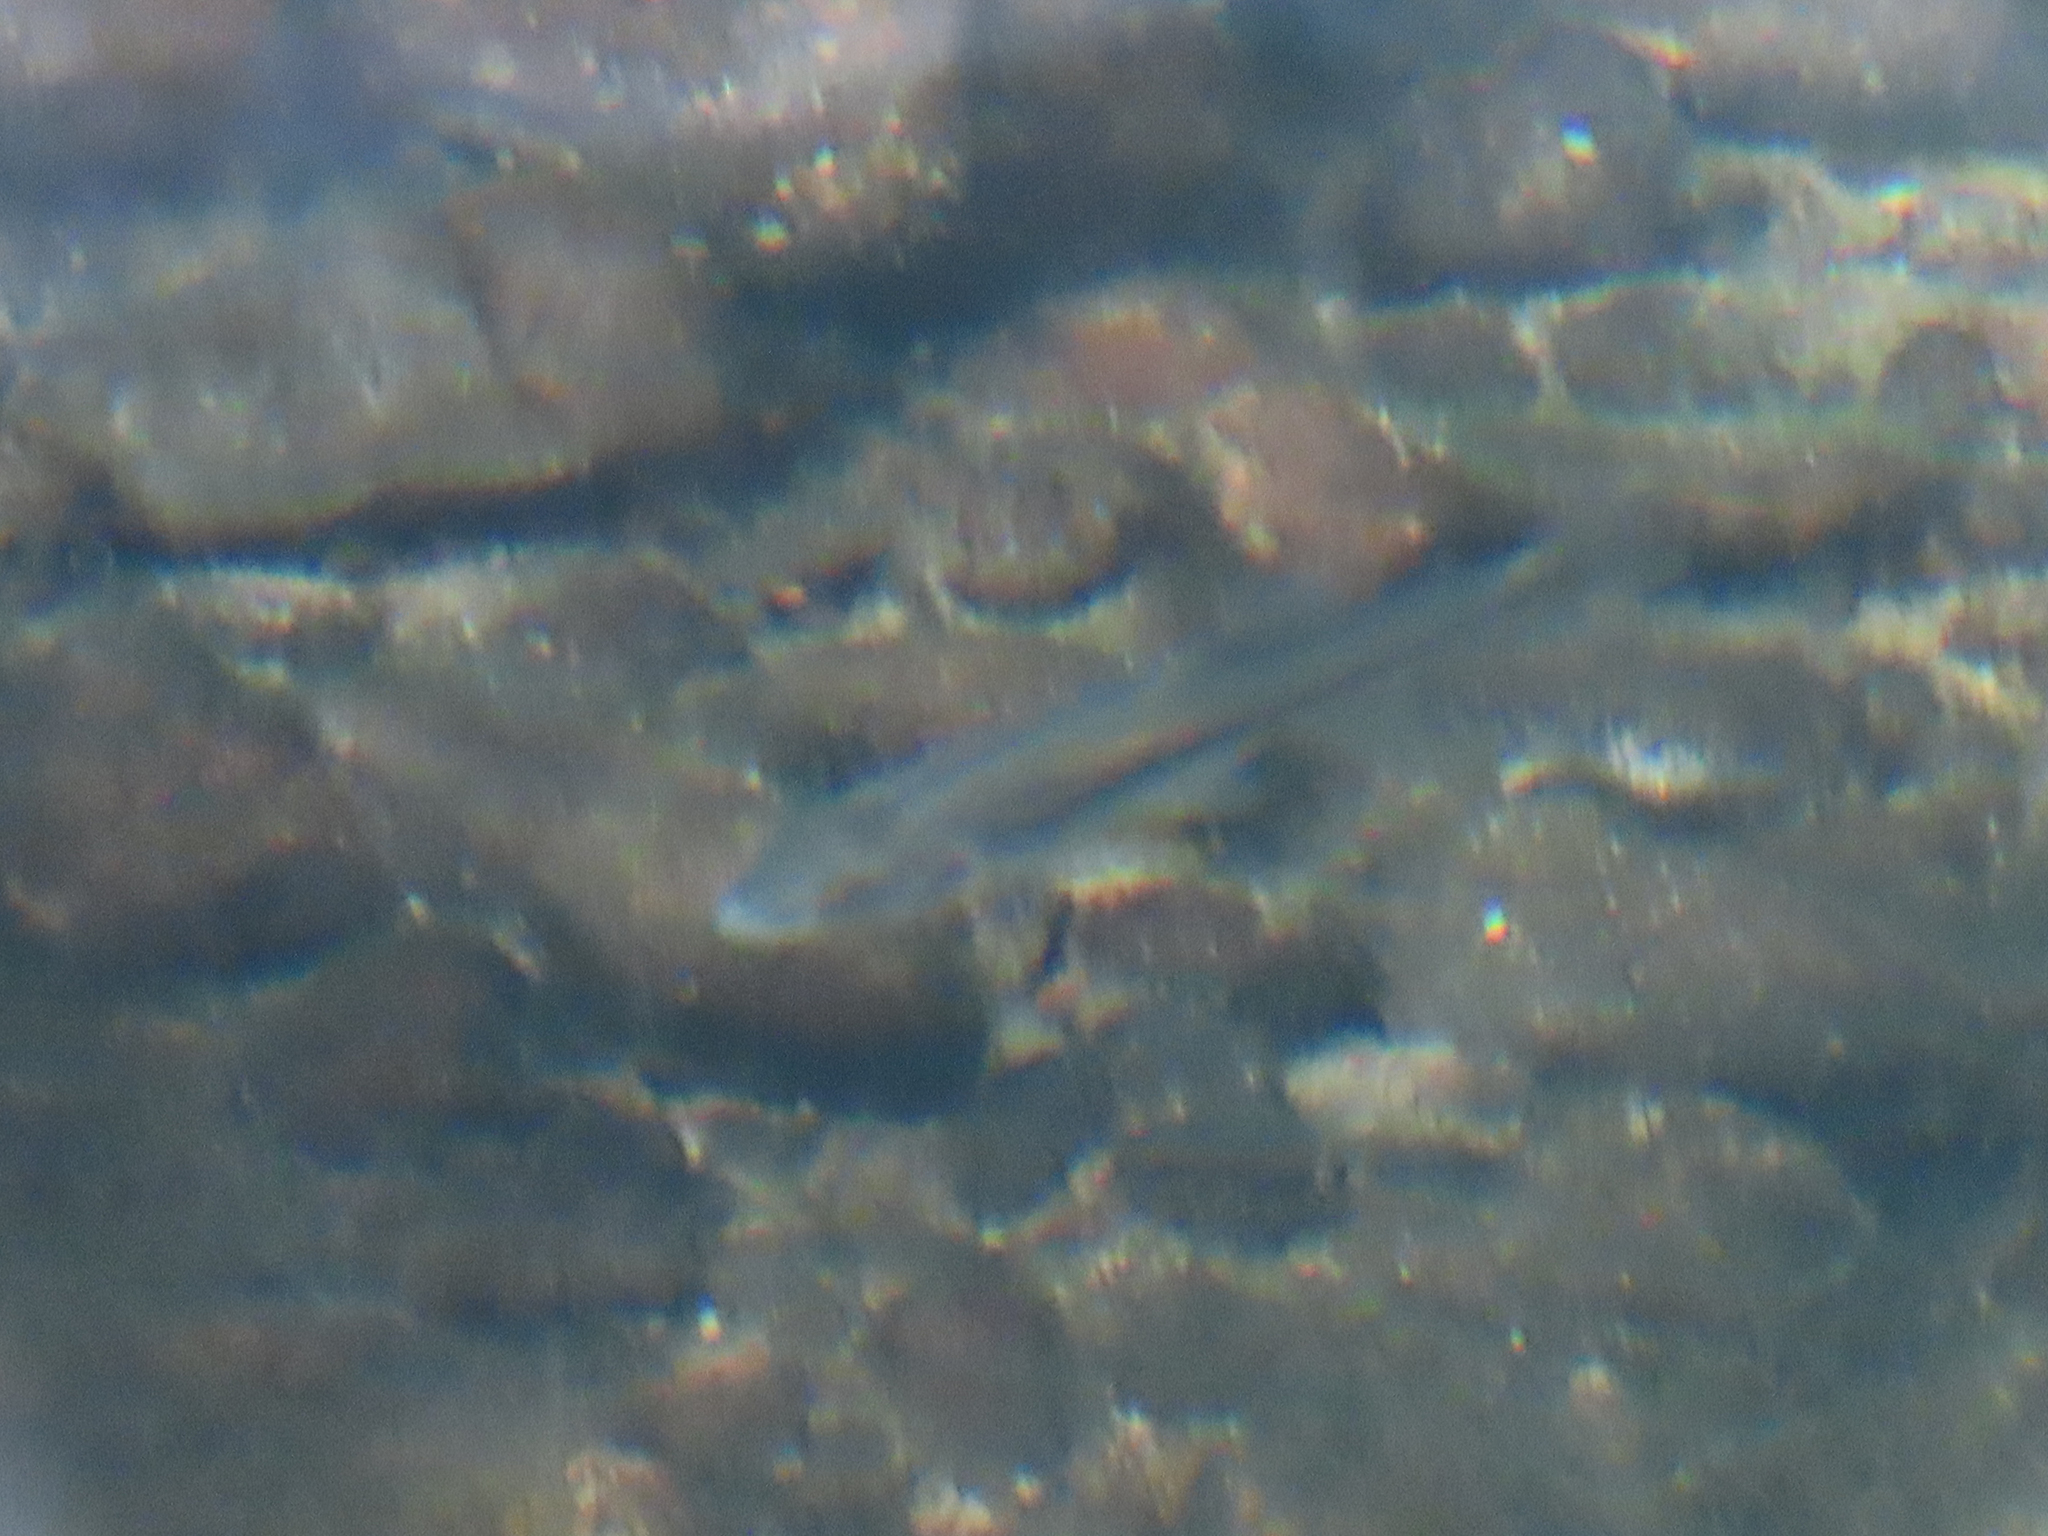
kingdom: Animalia
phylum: Chordata
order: Cypriniformes
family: Cyprinidae
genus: Agosia
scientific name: Agosia chrysogaster
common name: Longfin dace
